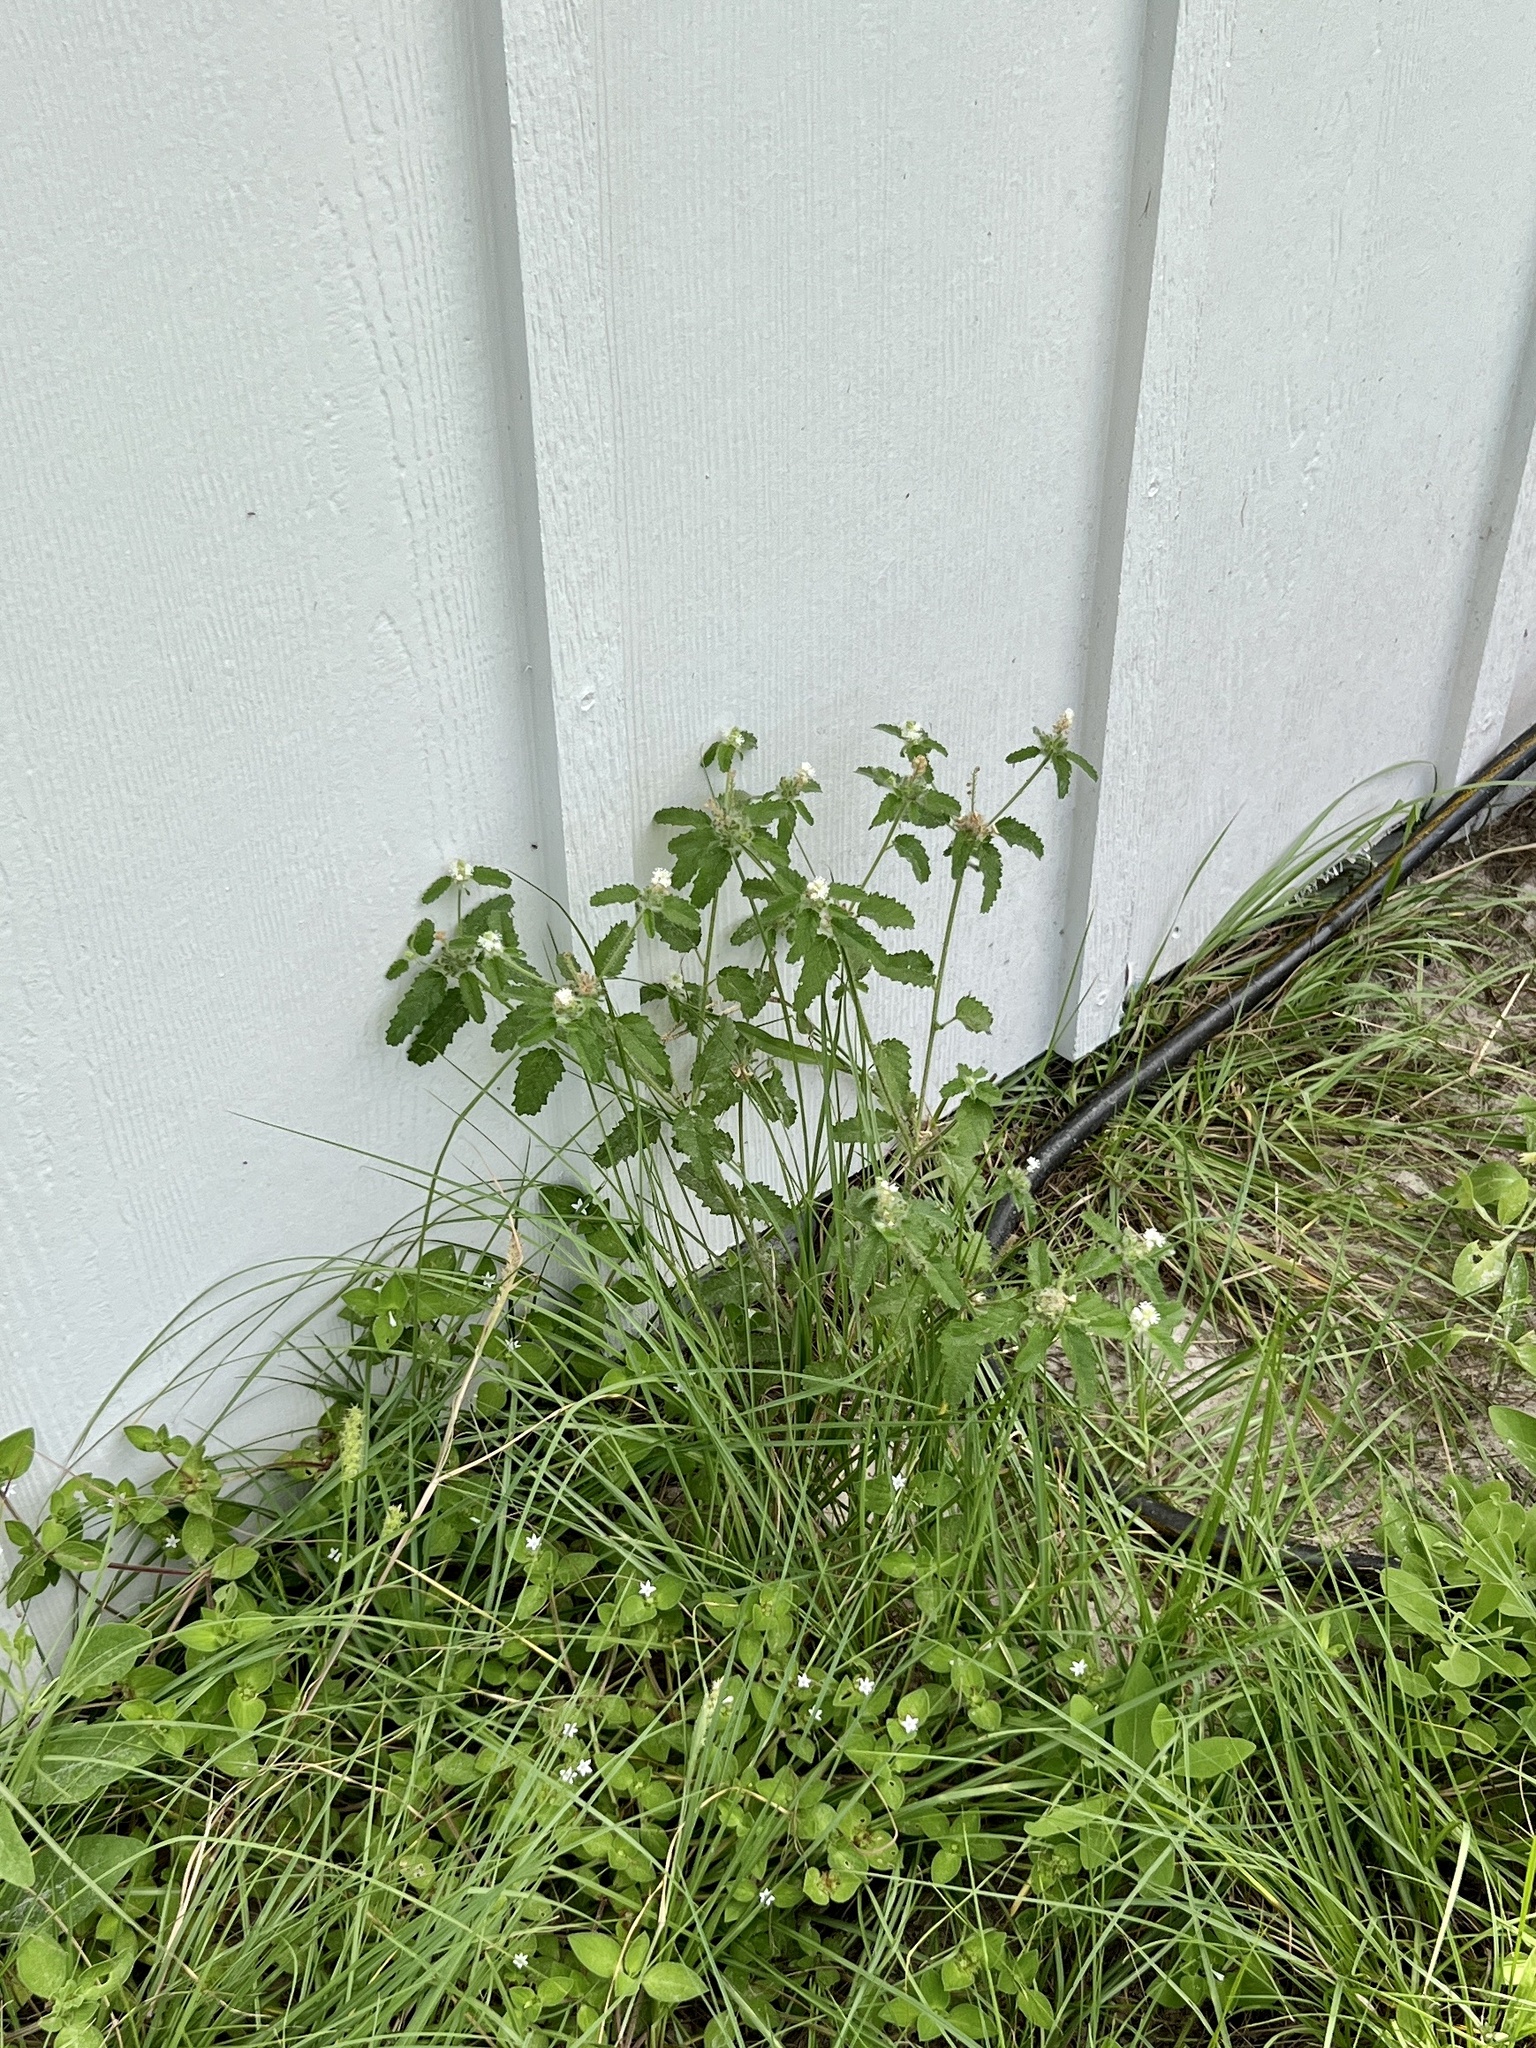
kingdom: Plantae
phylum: Tracheophyta
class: Magnoliopsida
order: Malpighiales
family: Euphorbiaceae
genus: Croton
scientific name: Croton glandulosus
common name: Tropic croton
